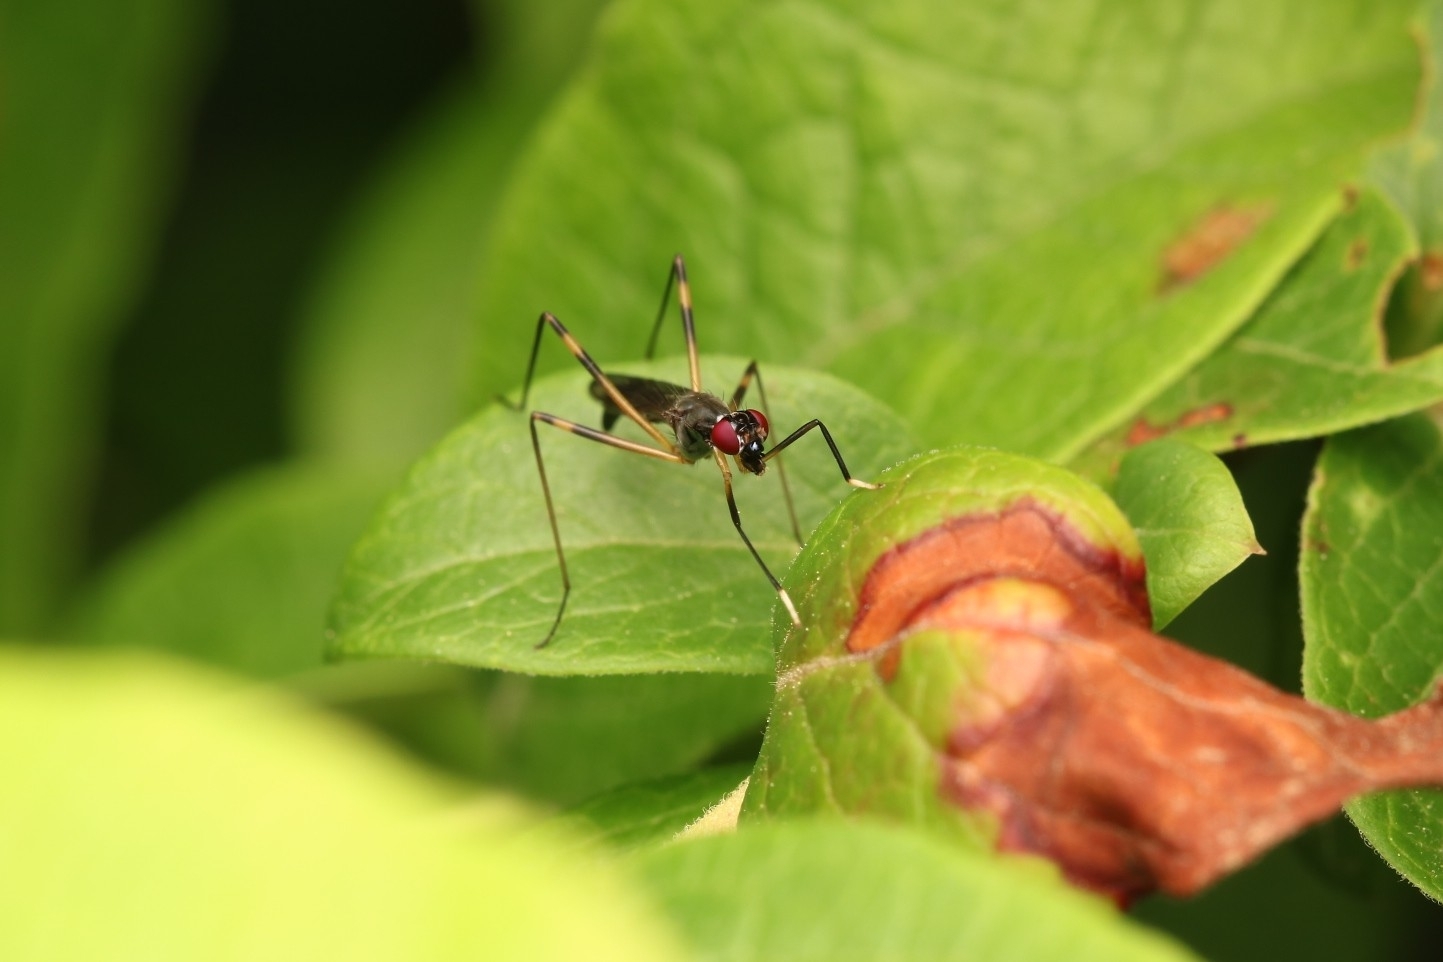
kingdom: Animalia
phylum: Arthropoda
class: Insecta
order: Diptera
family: Micropezidae
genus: Rainieria
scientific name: Rainieria antennaepes
